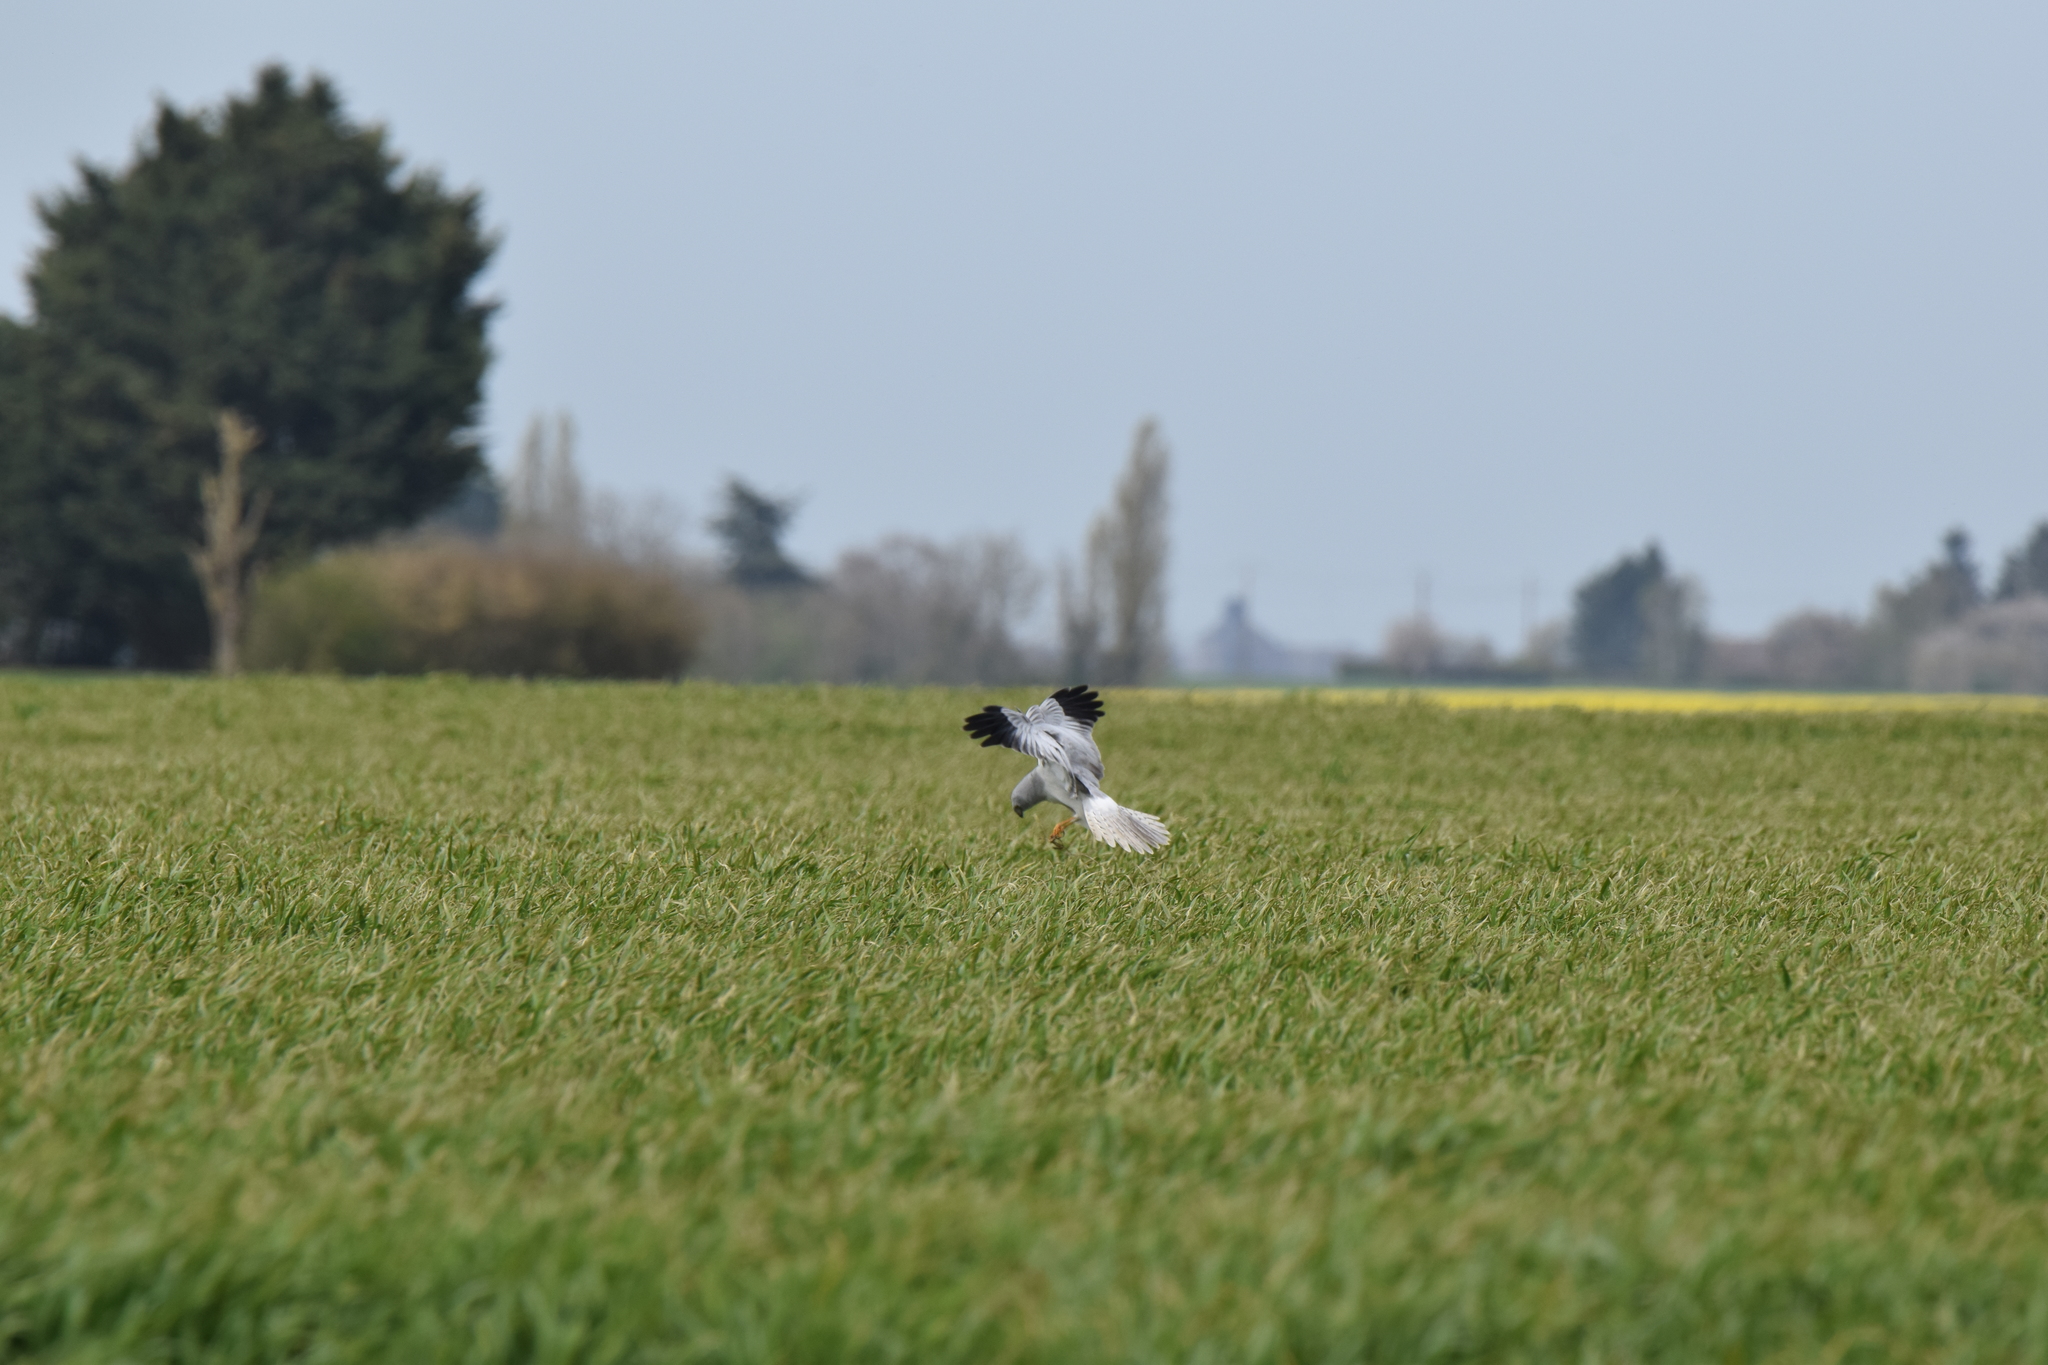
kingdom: Animalia
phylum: Chordata
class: Aves
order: Accipitriformes
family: Accipitridae
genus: Circus
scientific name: Circus cyaneus
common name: Hen harrier
